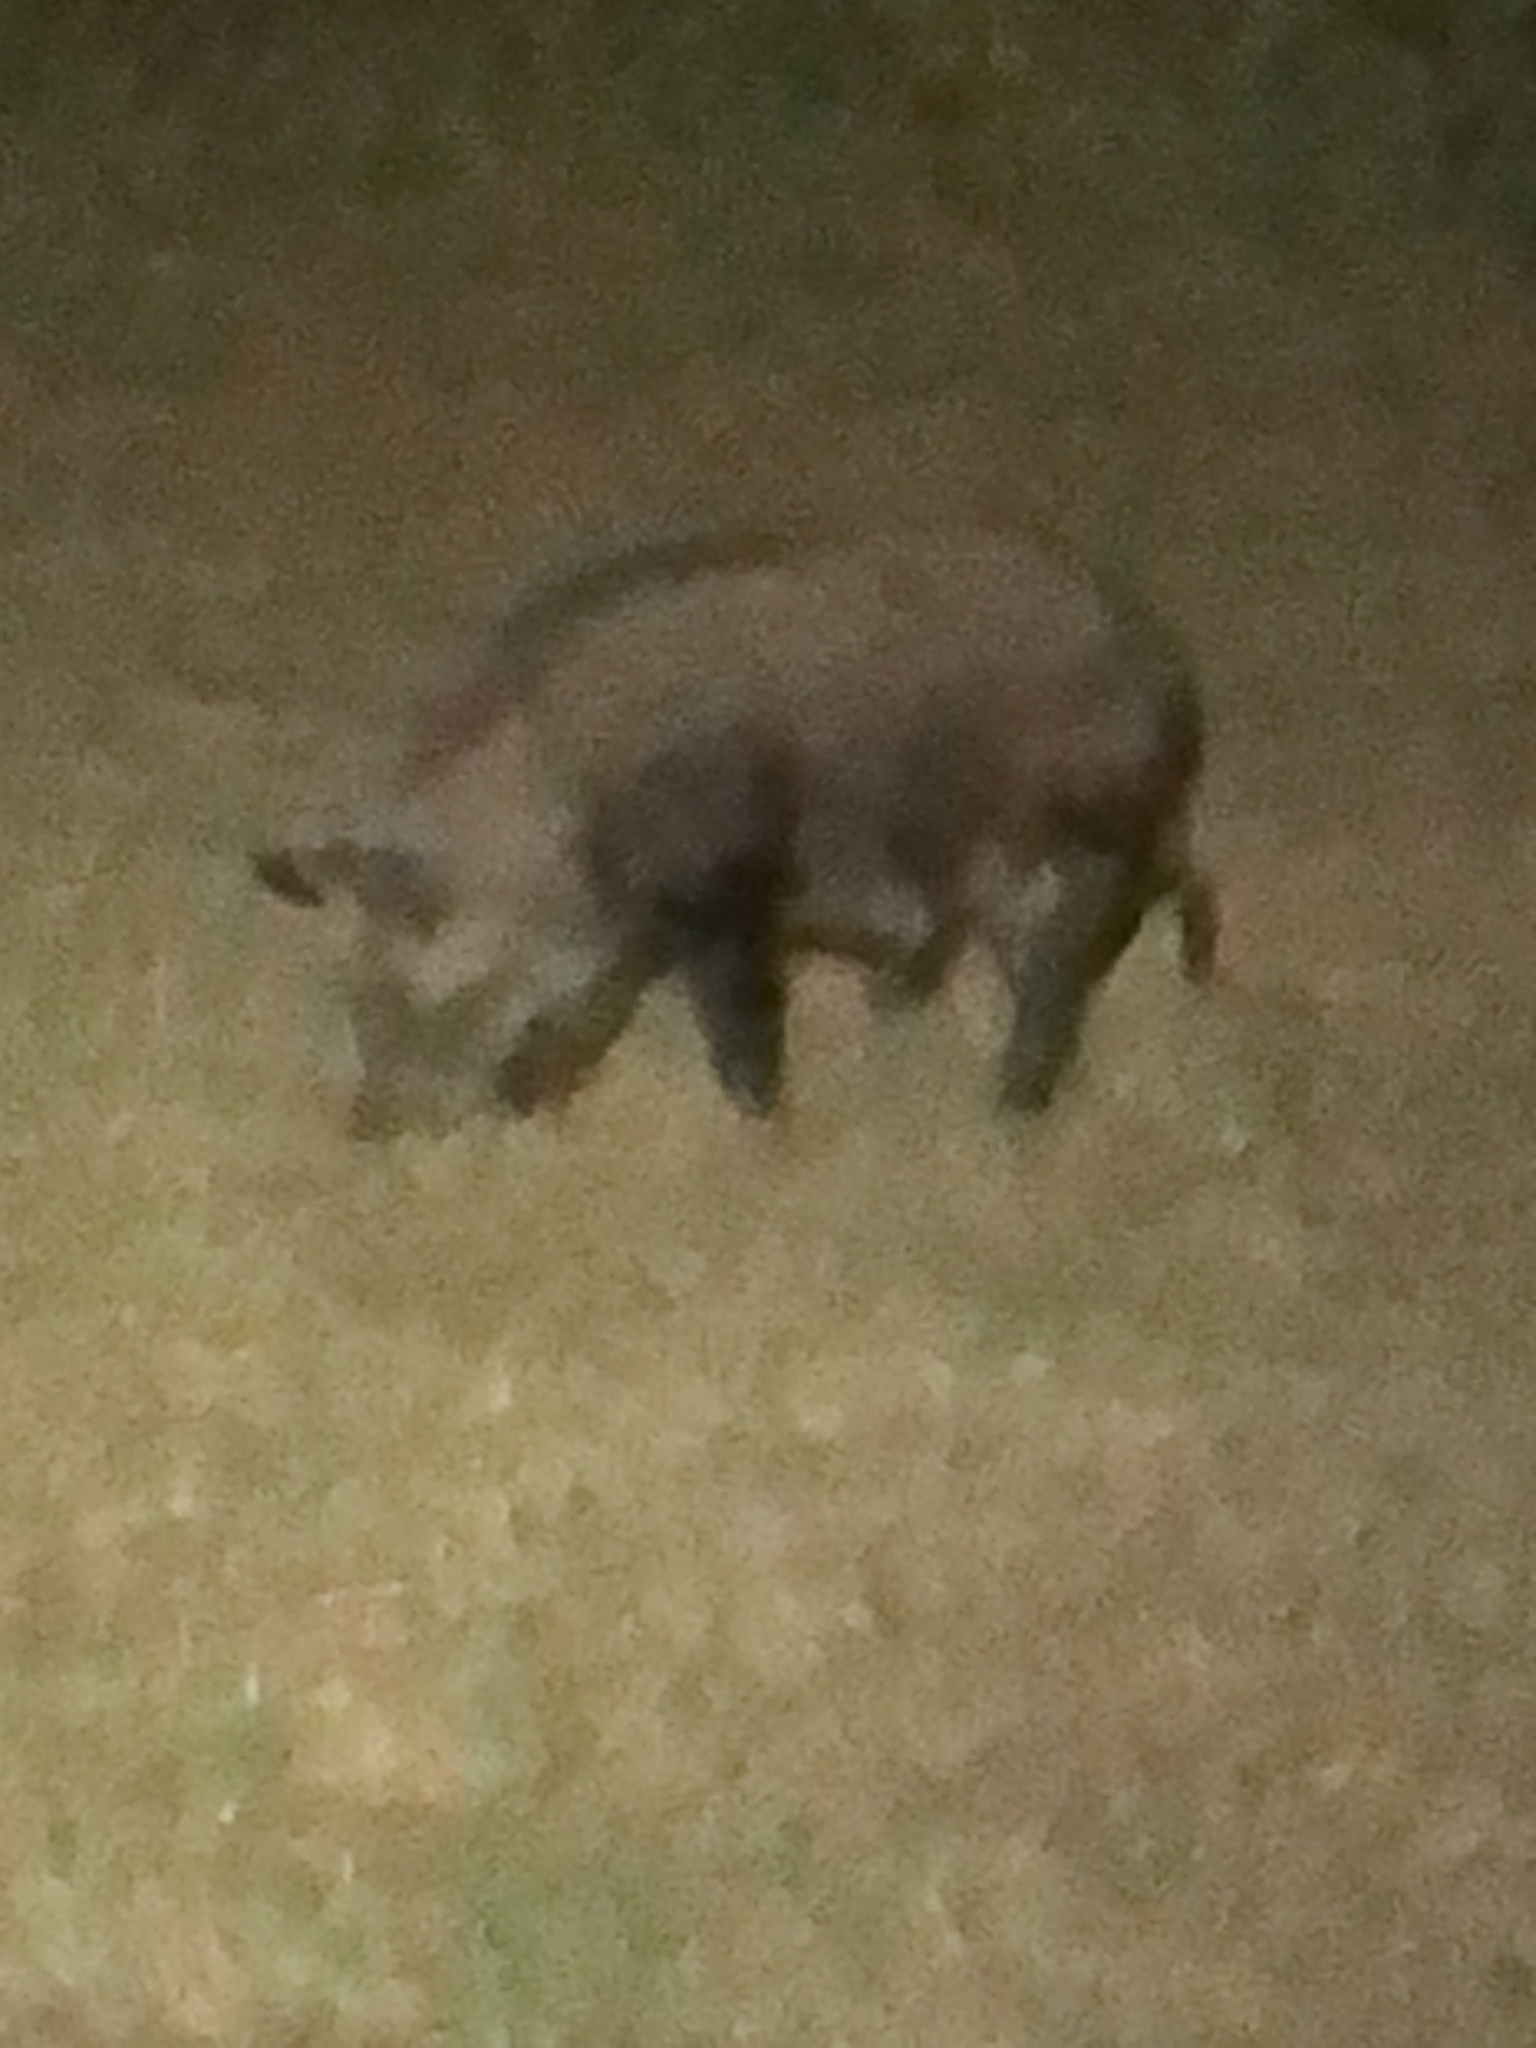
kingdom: Animalia
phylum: Chordata
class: Mammalia
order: Artiodactyla
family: Suidae
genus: Sus
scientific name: Sus scrofa
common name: Wild boar
